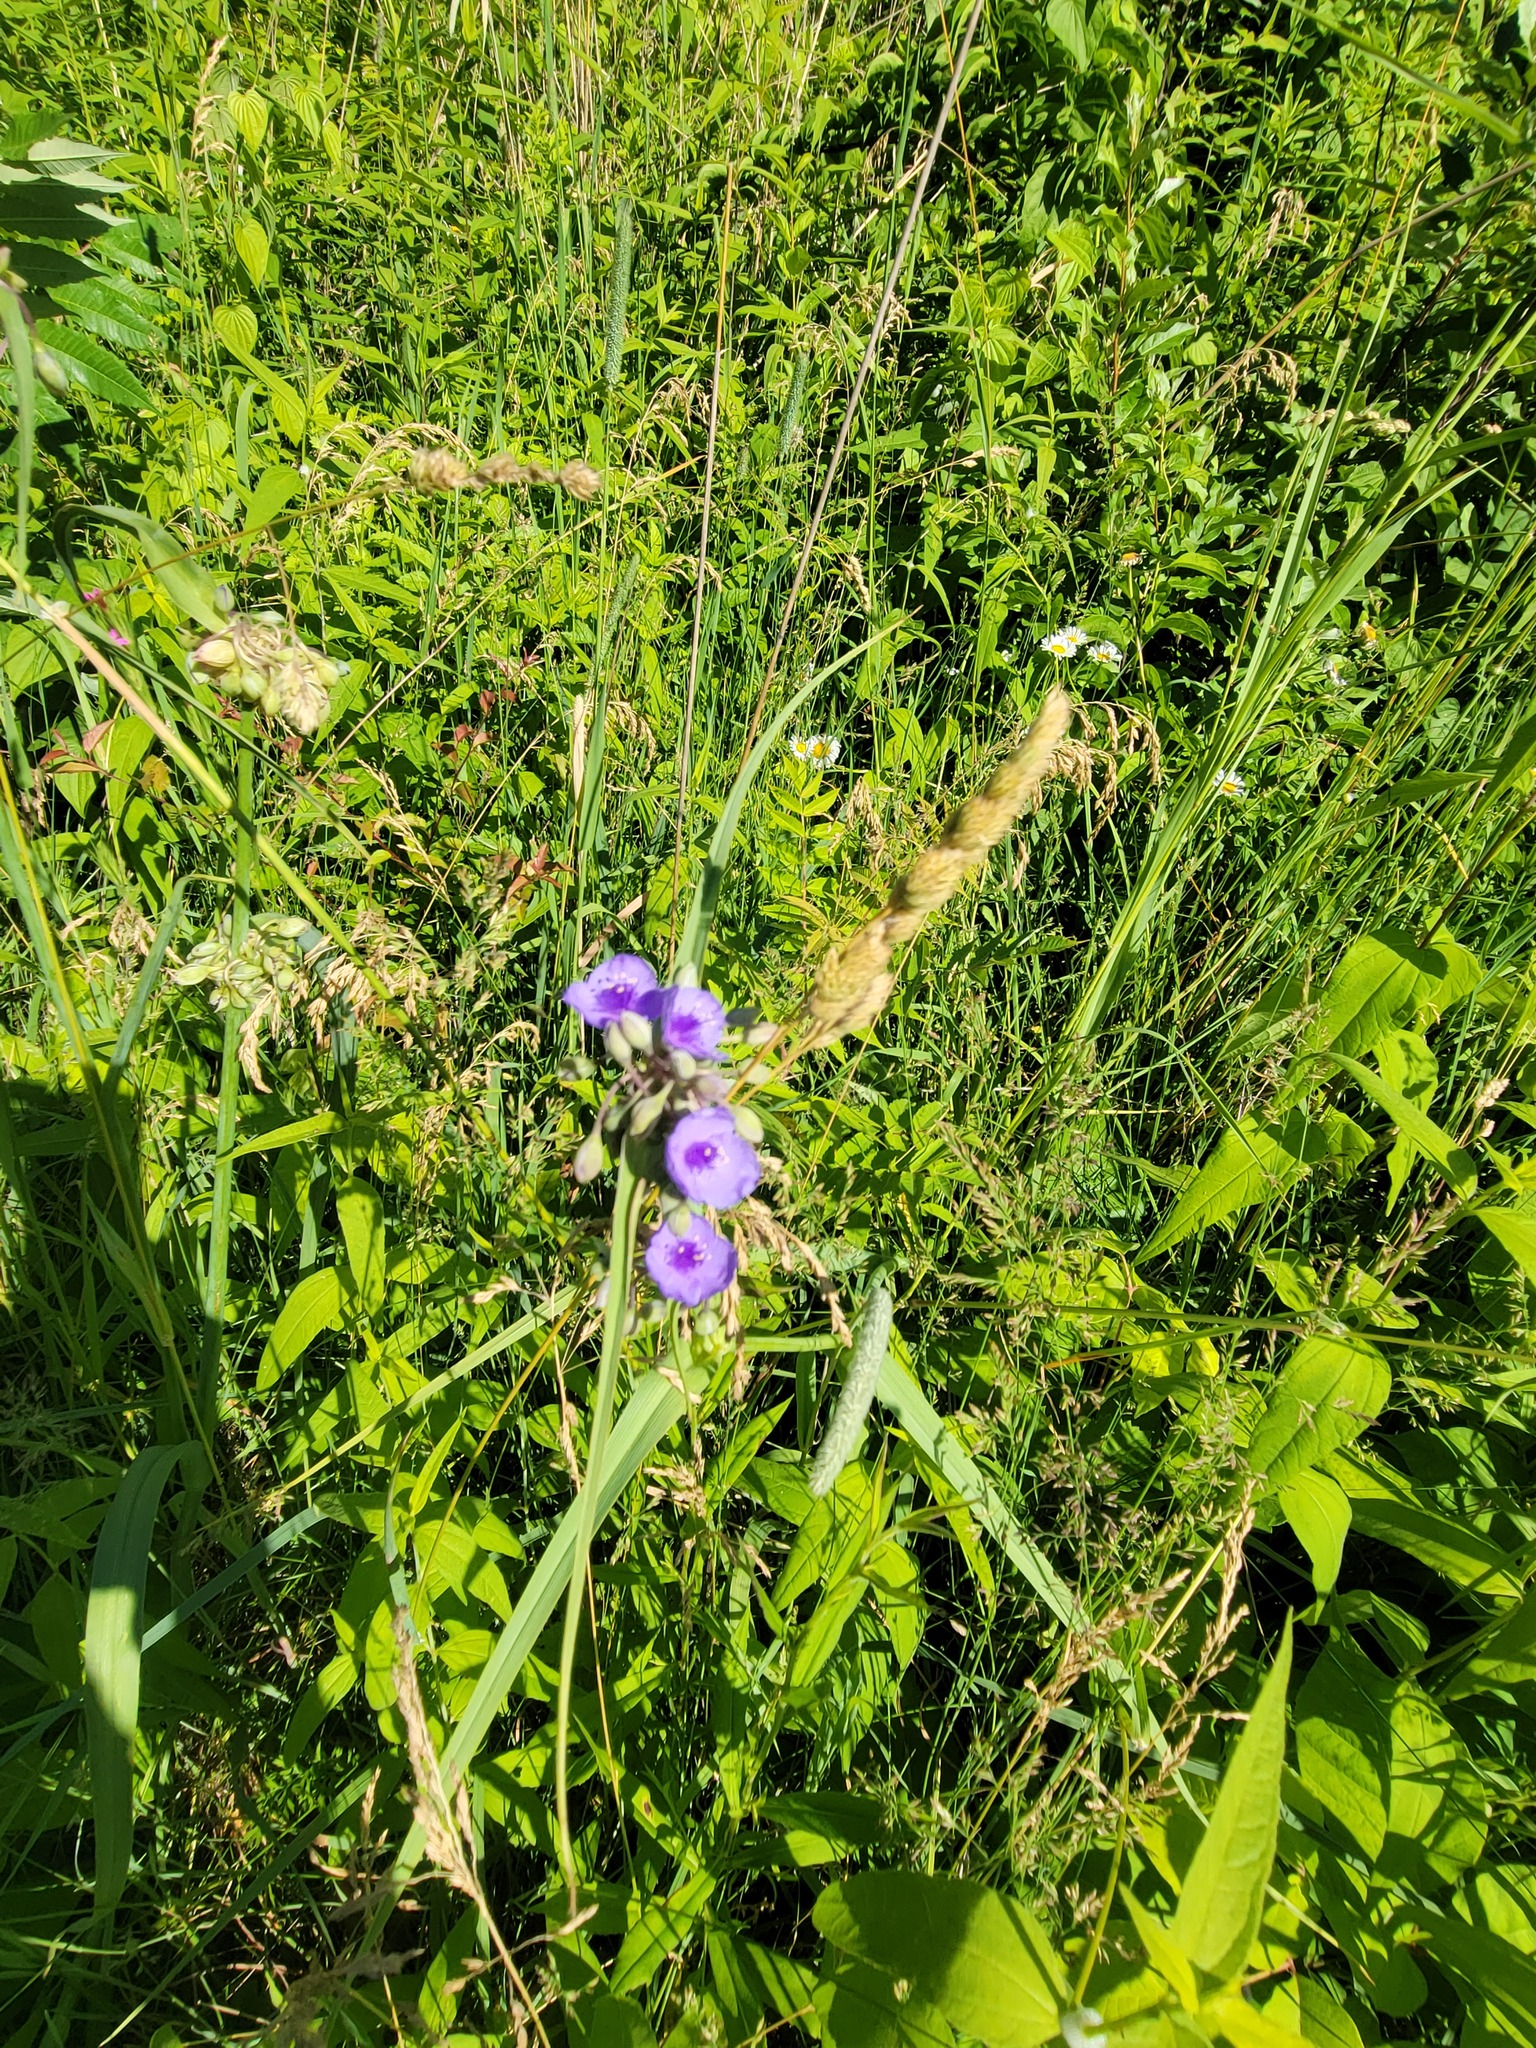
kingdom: Plantae
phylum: Tracheophyta
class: Liliopsida
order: Commelinales
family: Commelinaceae
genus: Tradescantia
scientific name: Tradescantia ohiensis
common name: Ohio spiderwort
